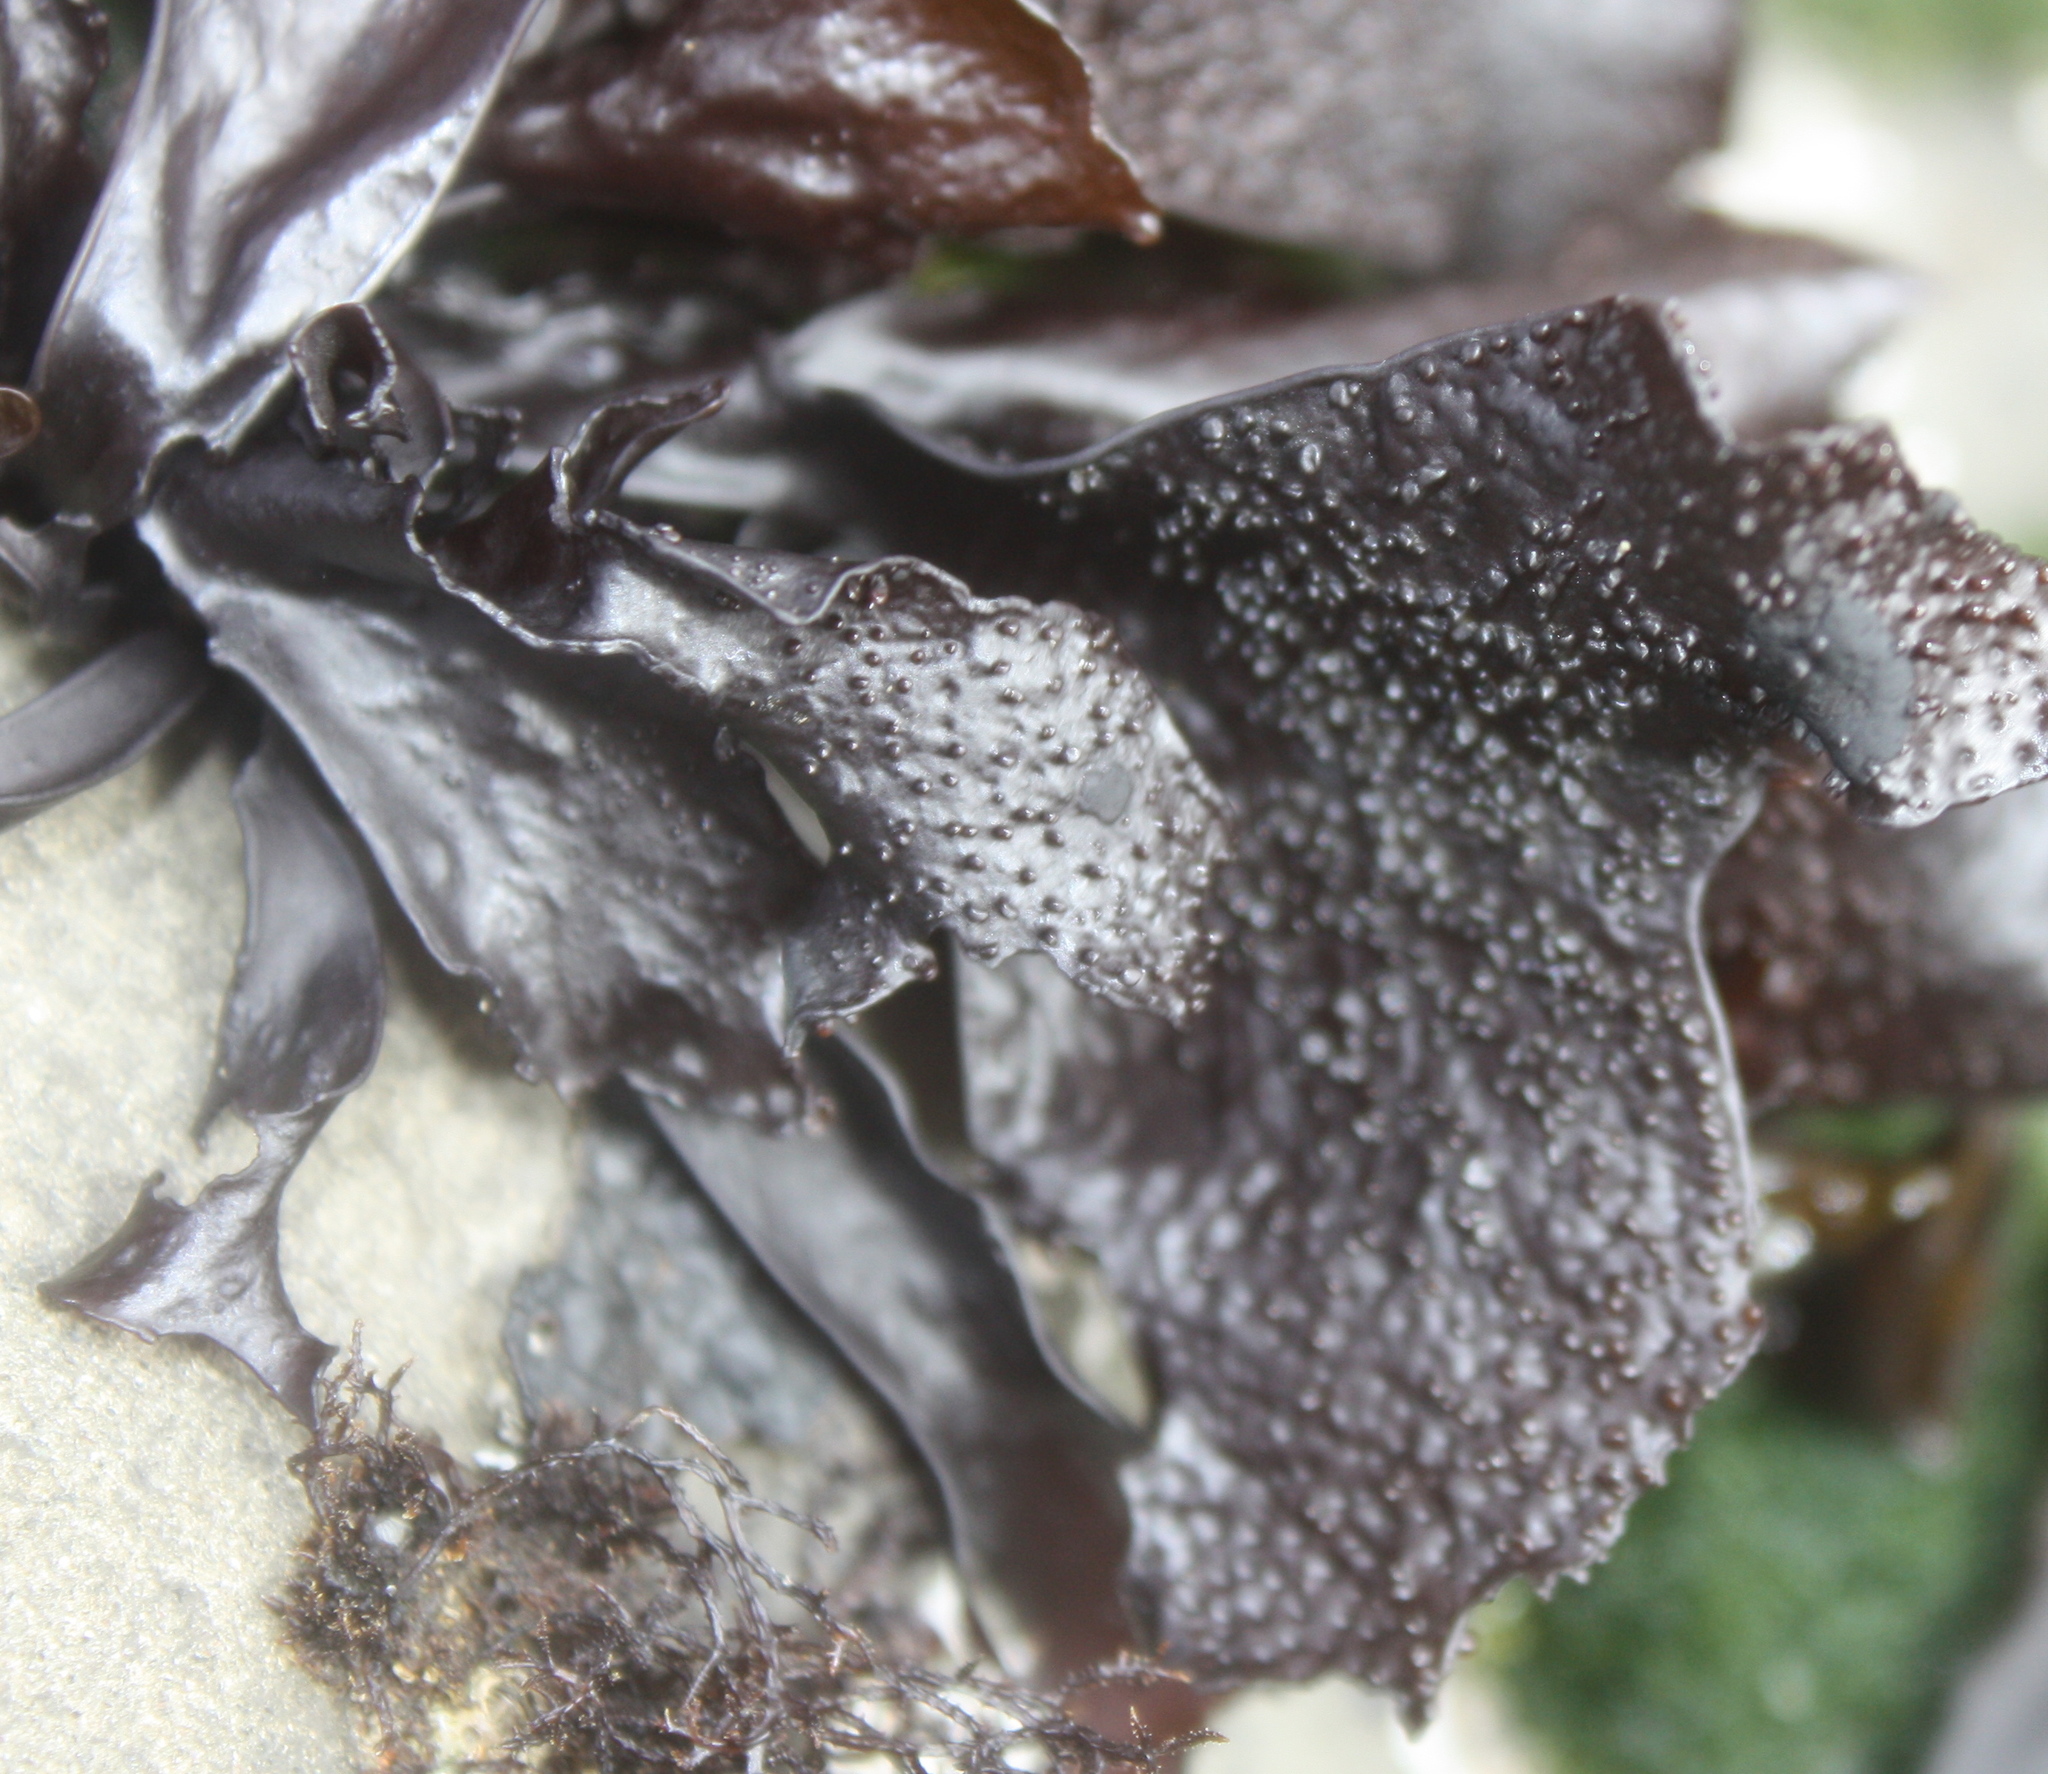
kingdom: Plantae
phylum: Rhodophyta
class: Florideophyceae
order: Gigartinales
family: Phyllophoraceae
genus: Mastocarpus
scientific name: Mastocarpus papillatus
